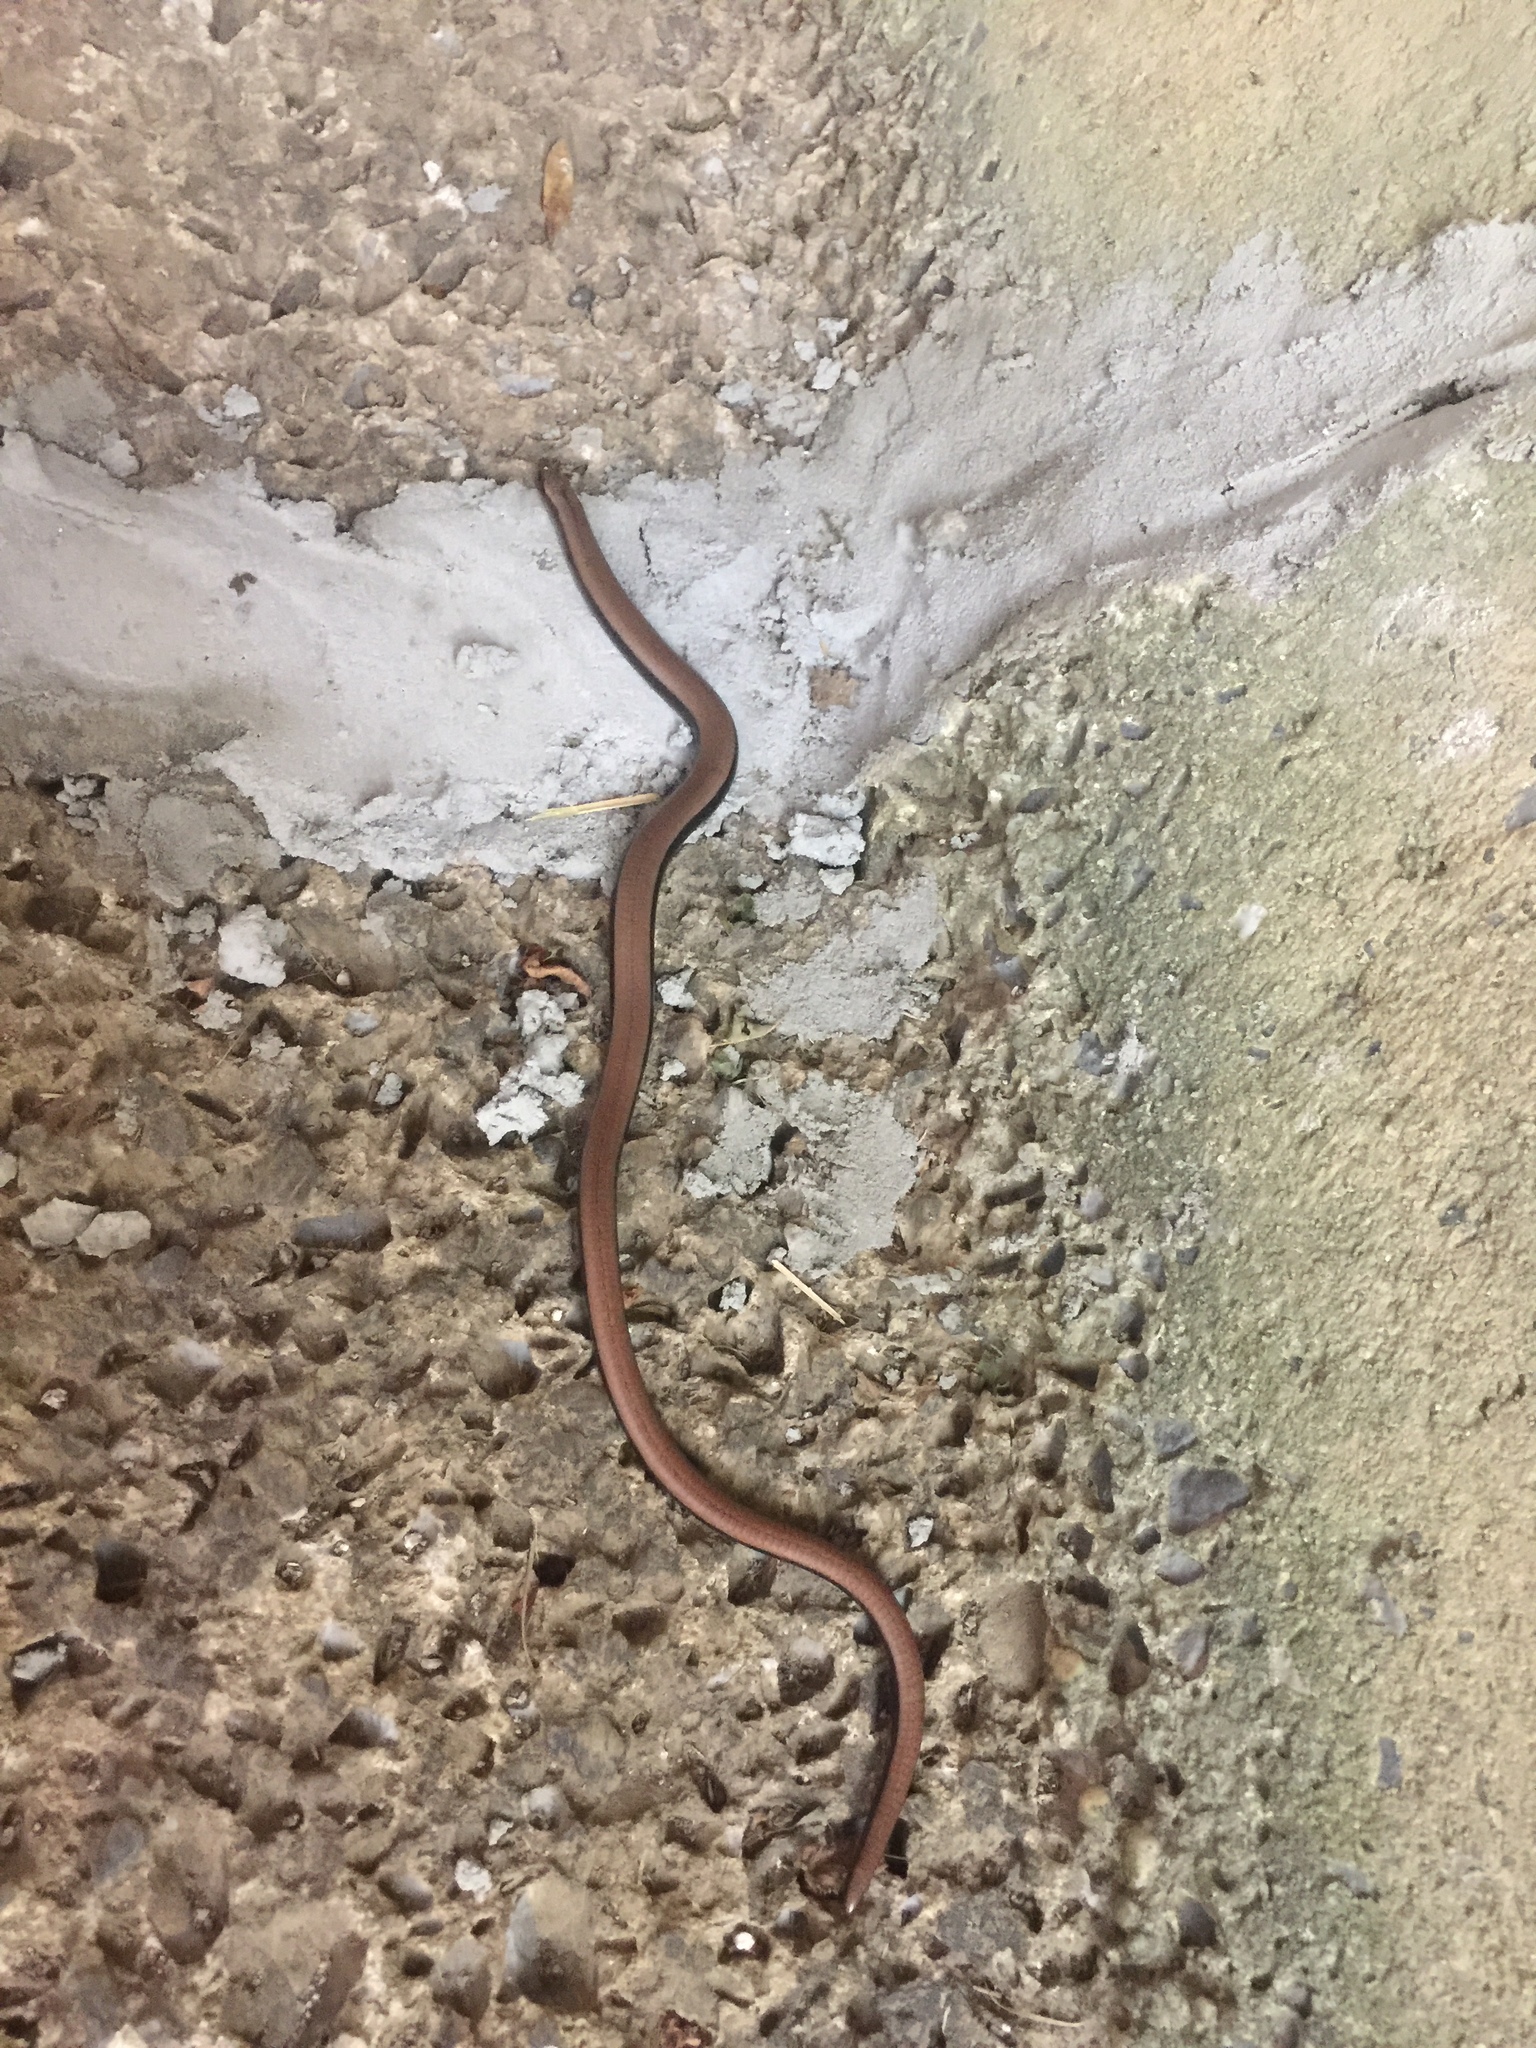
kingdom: Animalia
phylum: Chordata
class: Squamata
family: Anguidae
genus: Anguis
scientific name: Anguis fragilis
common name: Slow worm
